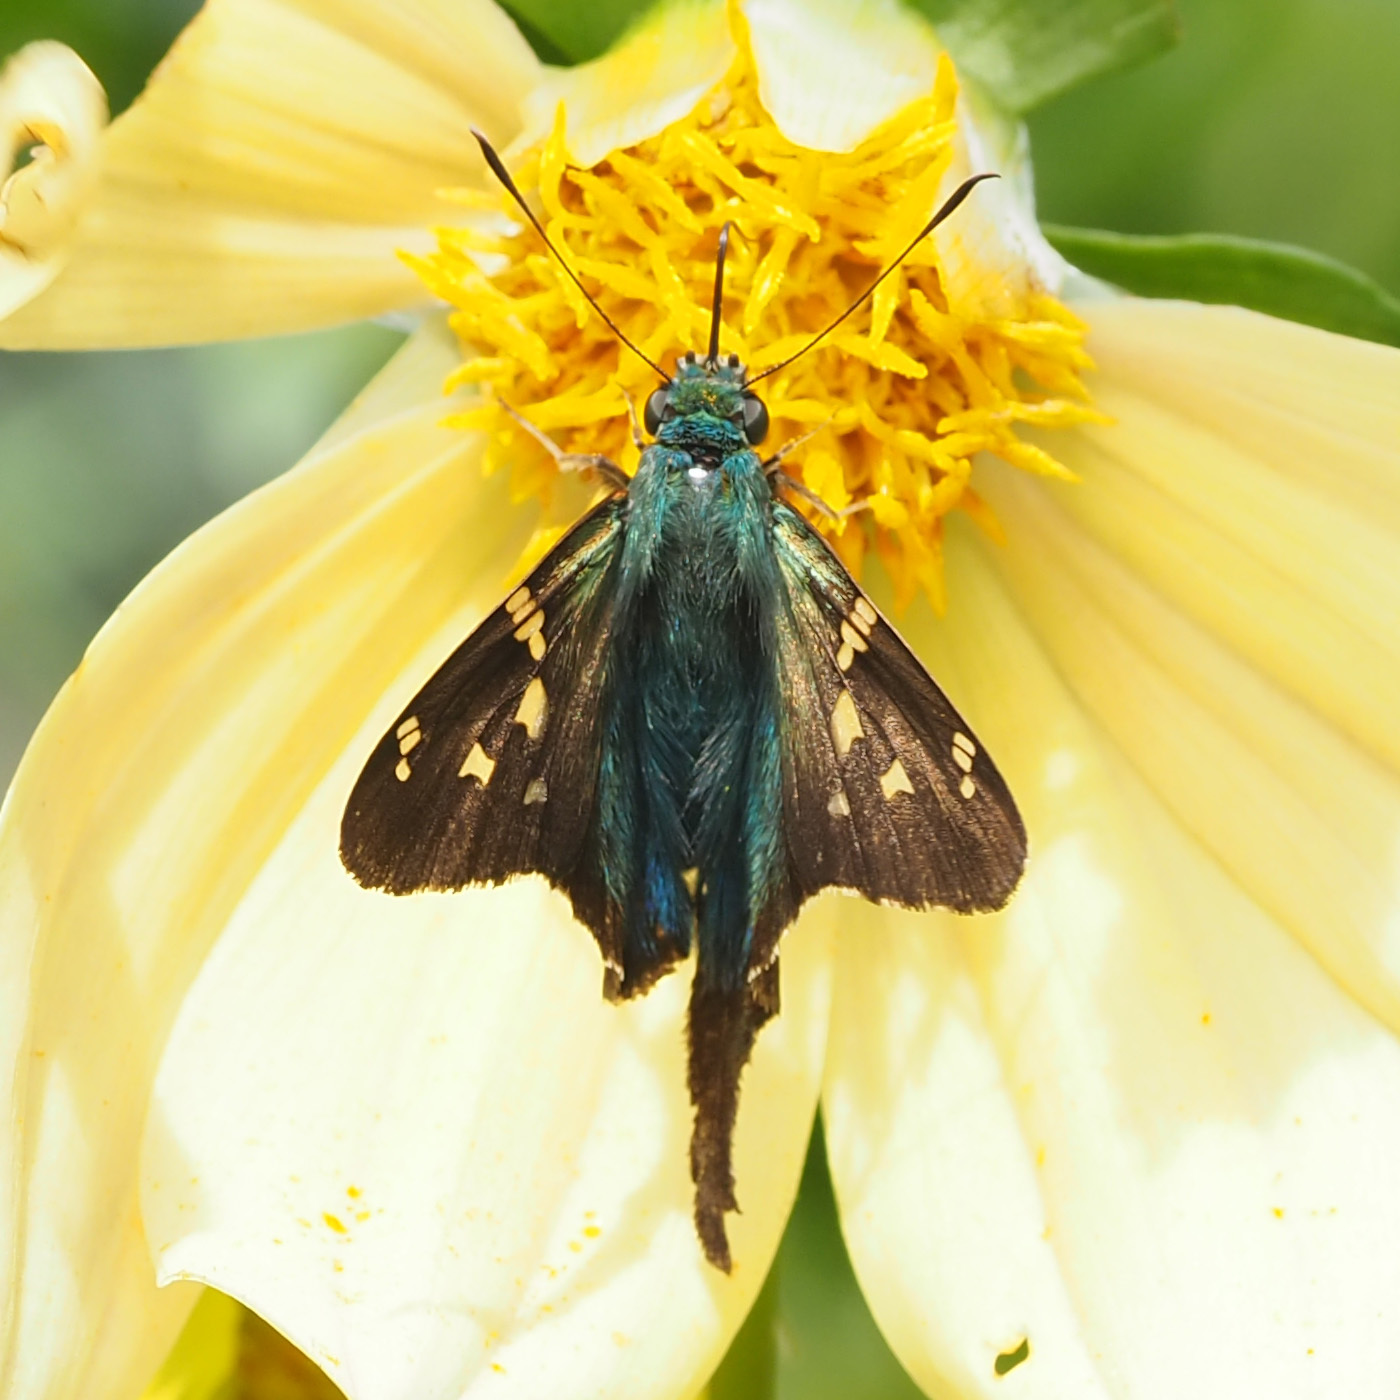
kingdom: Animalia
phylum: Arthropoda
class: Insecta
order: Lepidoptera
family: Hesperiidae
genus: Urbanus
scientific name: Urbanus proteus
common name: Long-tailed skipper
